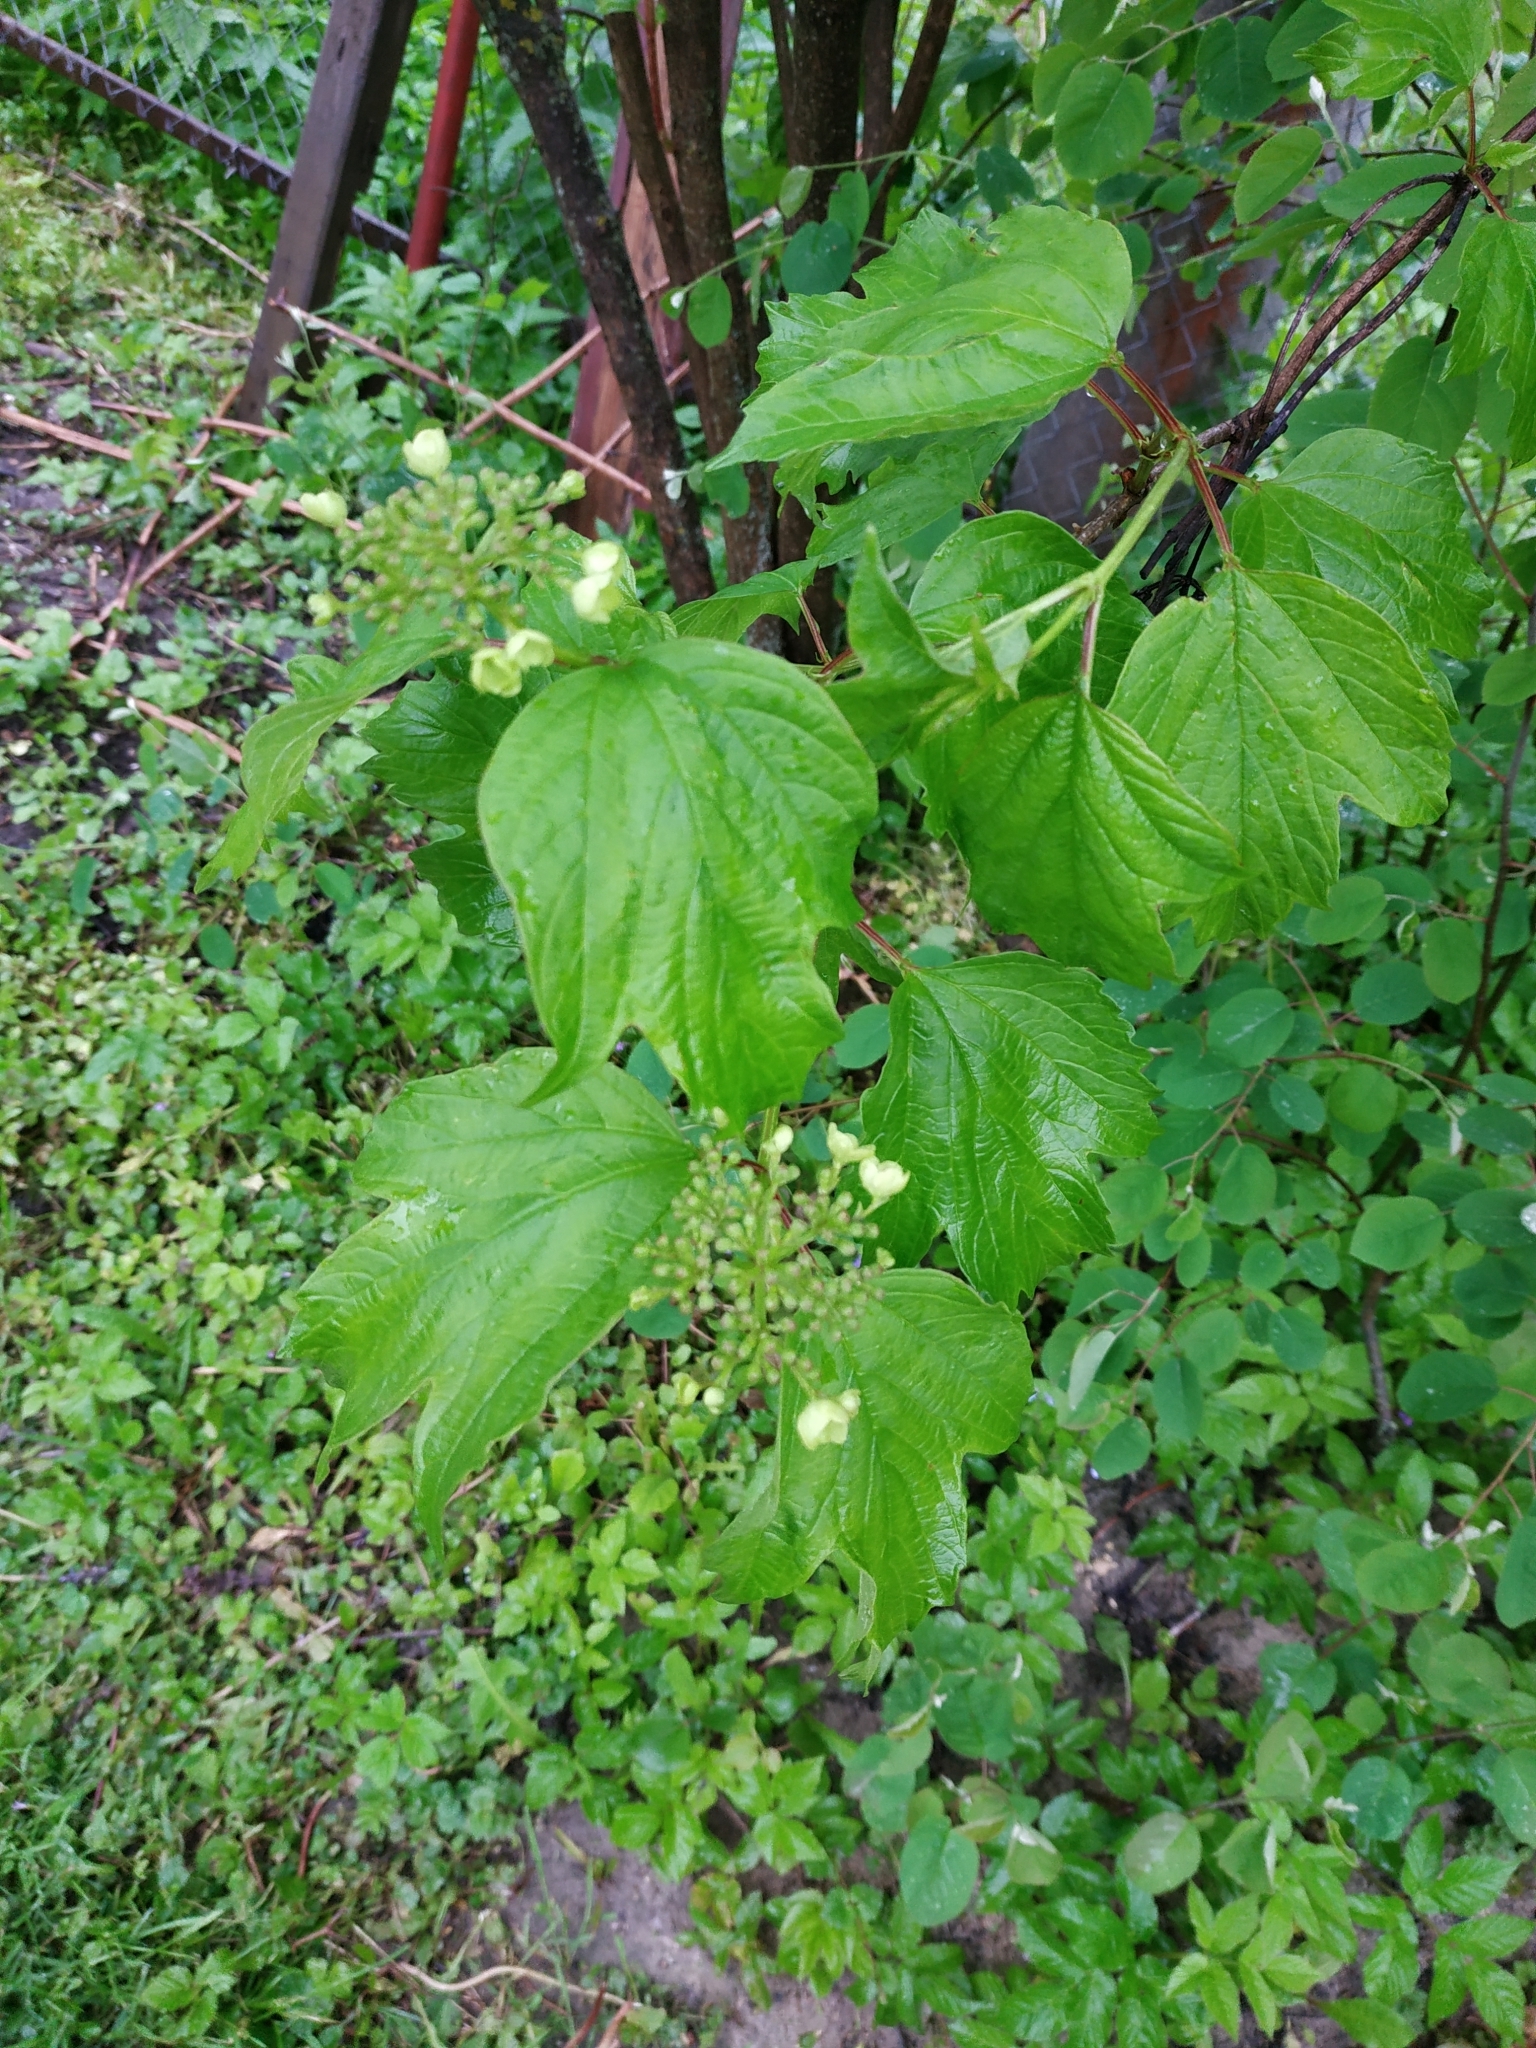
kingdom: Plantae
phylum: Tracheophyta
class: Magnoliopsida
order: Dipsacales
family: Viburnaceae
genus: Viburnum
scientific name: Viburnum opulus
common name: Guelder-rose
